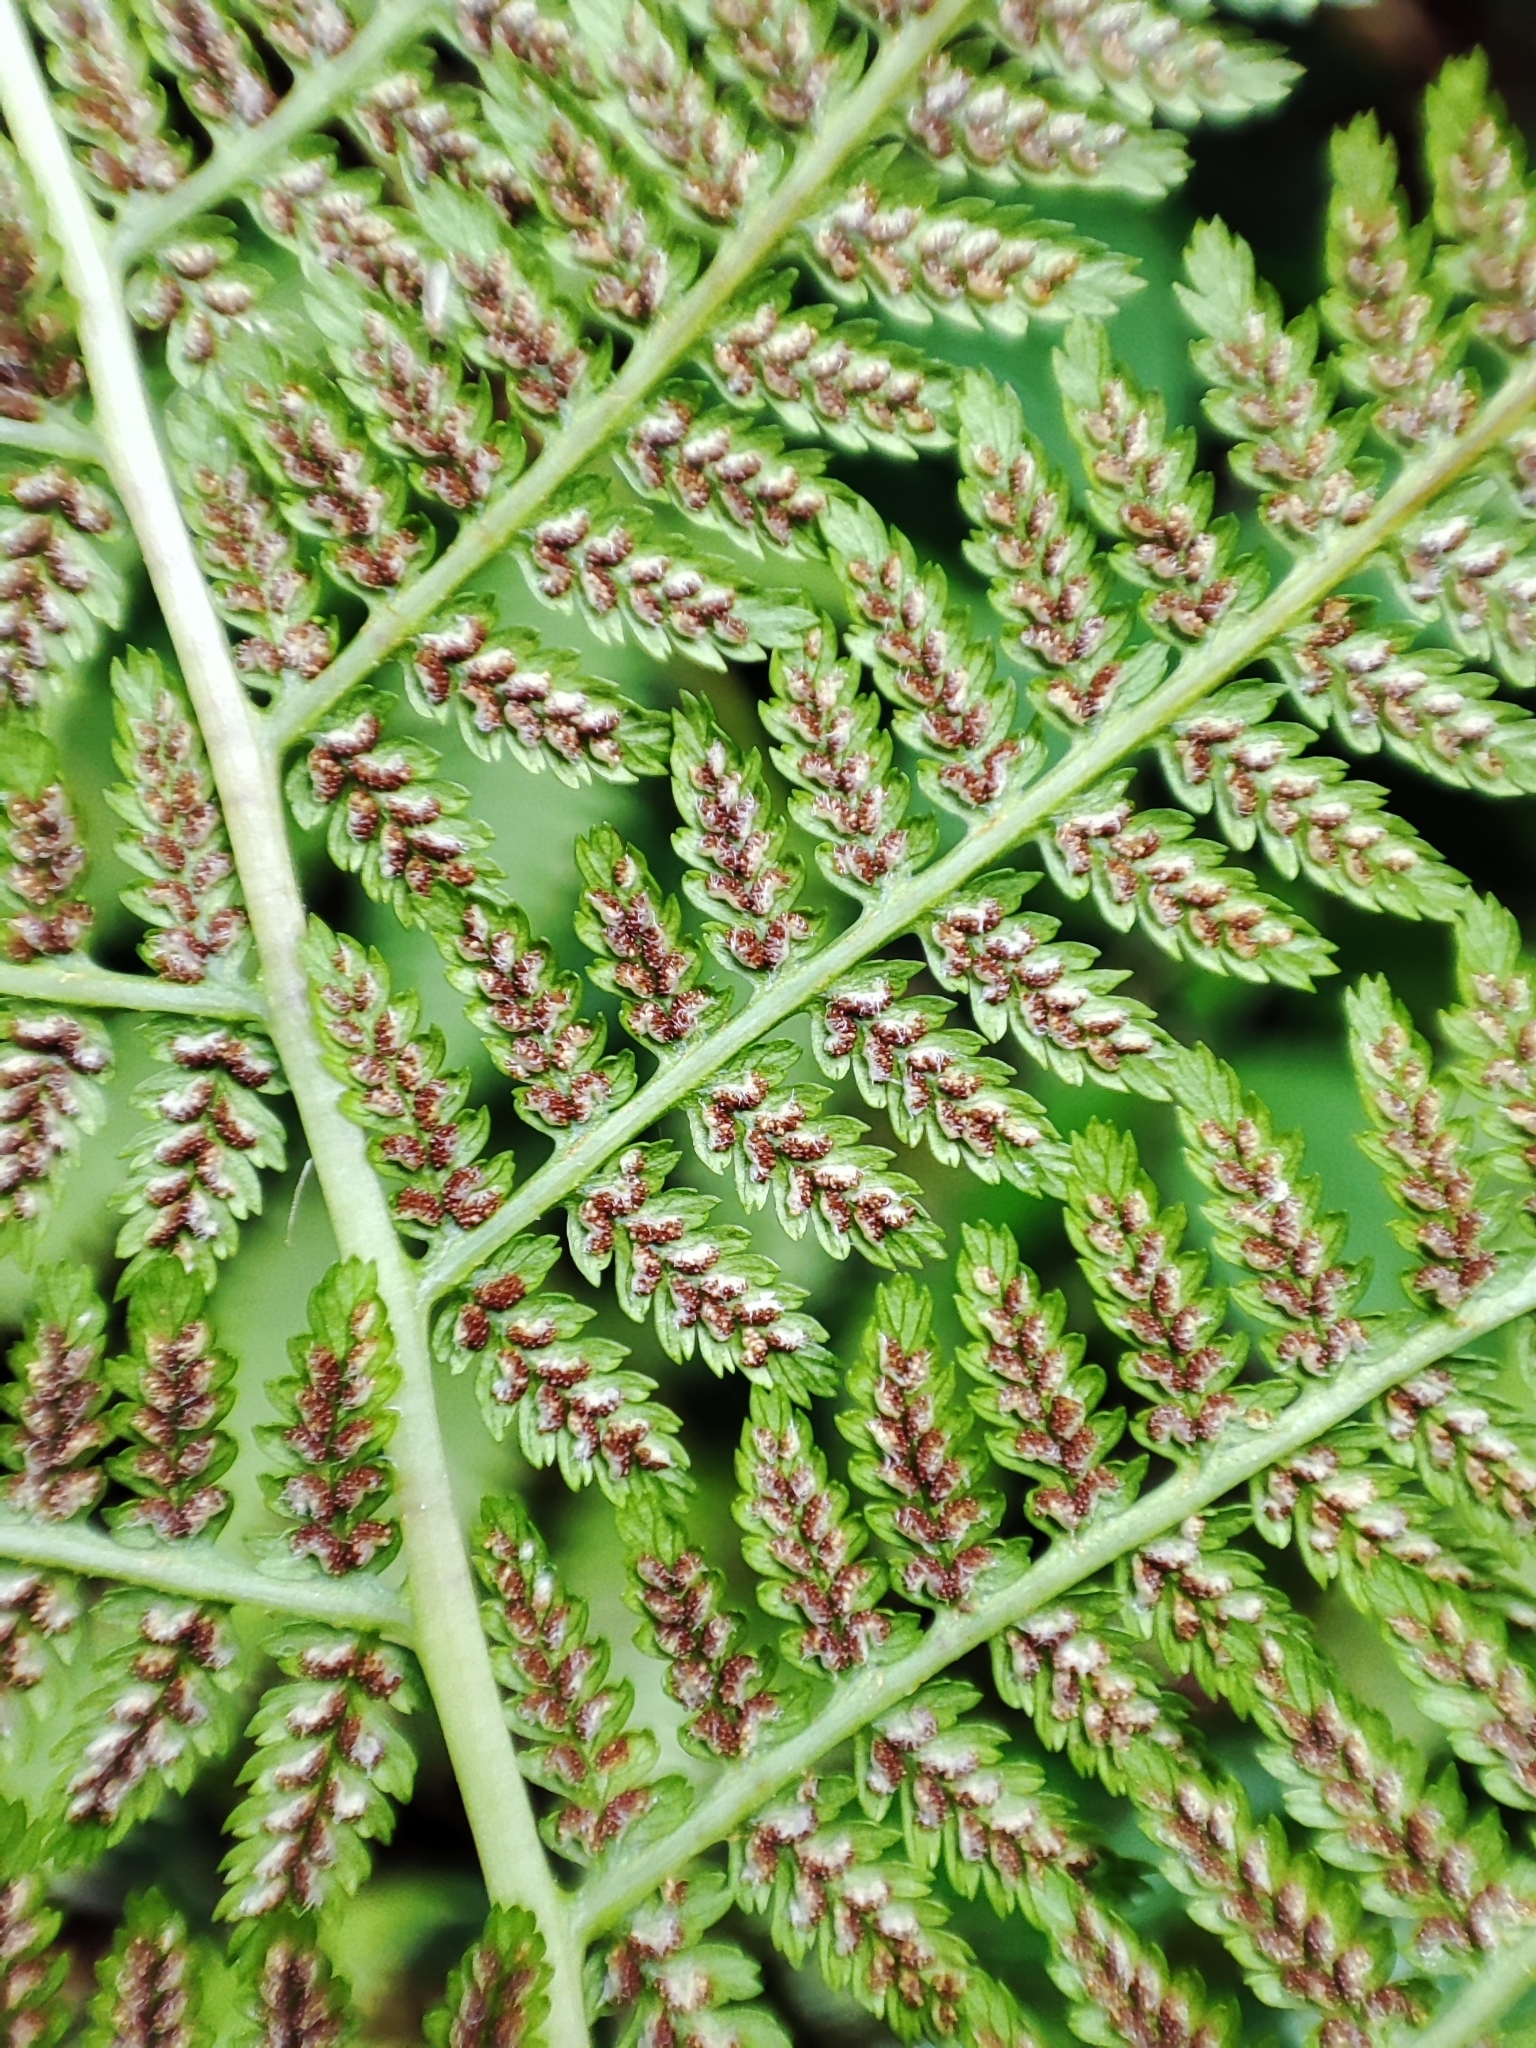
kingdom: Plantae
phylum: Tracheophyta
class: Polypodiopsida
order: Polypodiales
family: Athyriaceae
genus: Athyrium
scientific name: Athyrium filix-femina
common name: Lady fern
